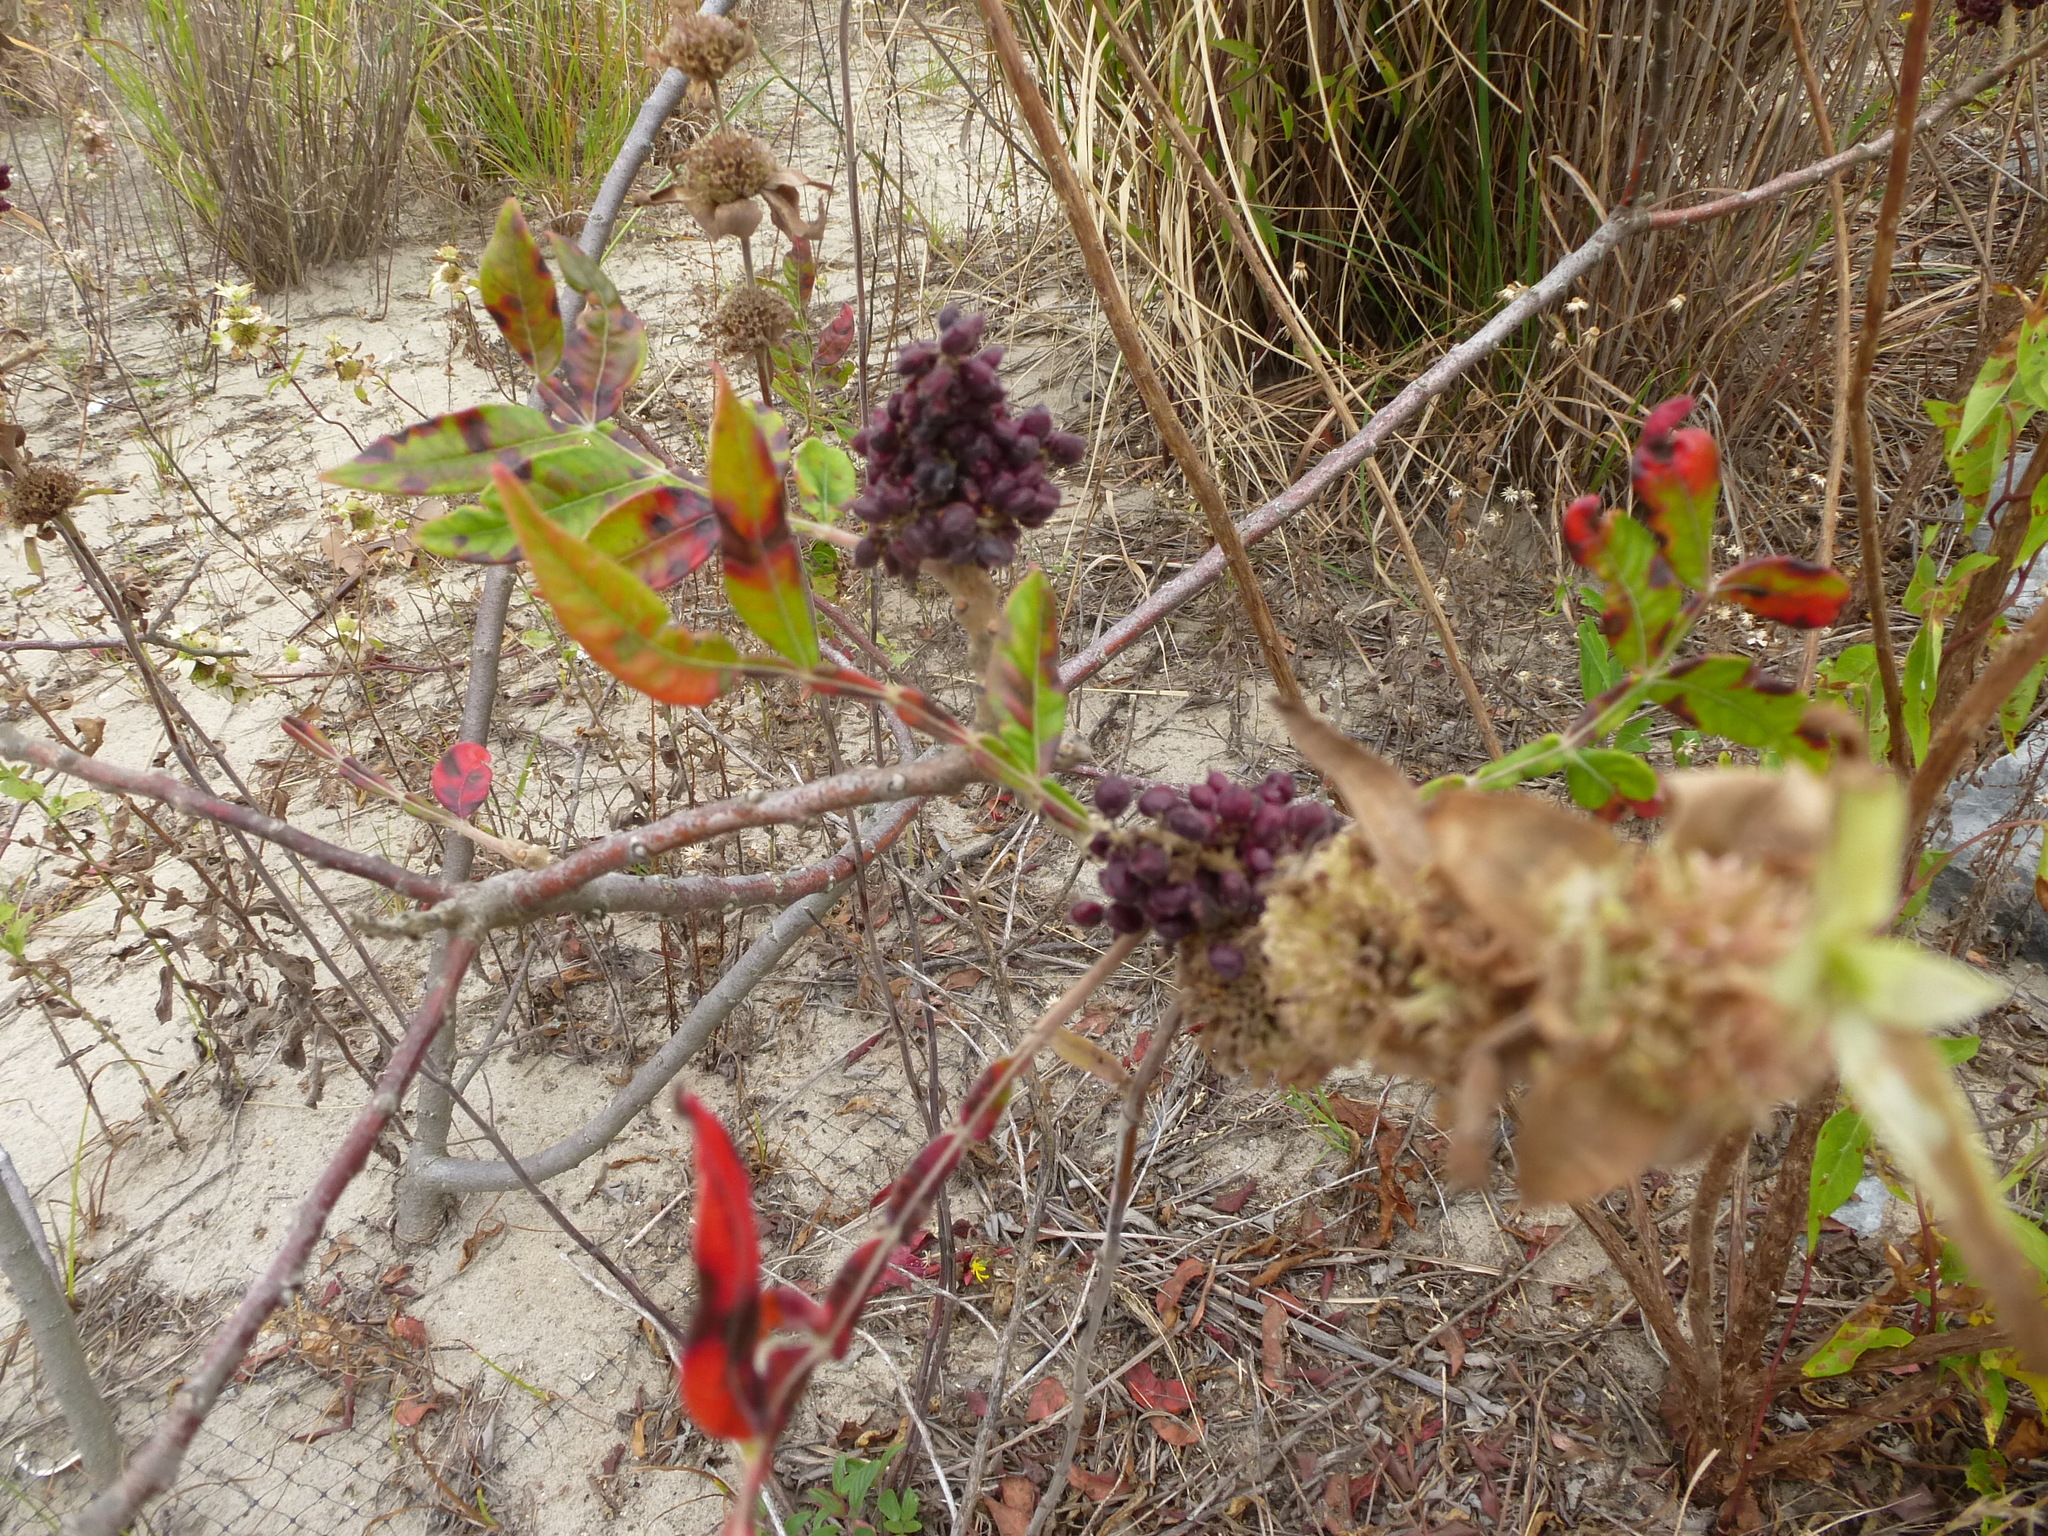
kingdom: Plantae
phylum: Tracheophyta
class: Magnoliopsida
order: Sapindales
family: Anacardiaceae
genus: Rhus
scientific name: Rhus copallina
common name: Shining sumac
